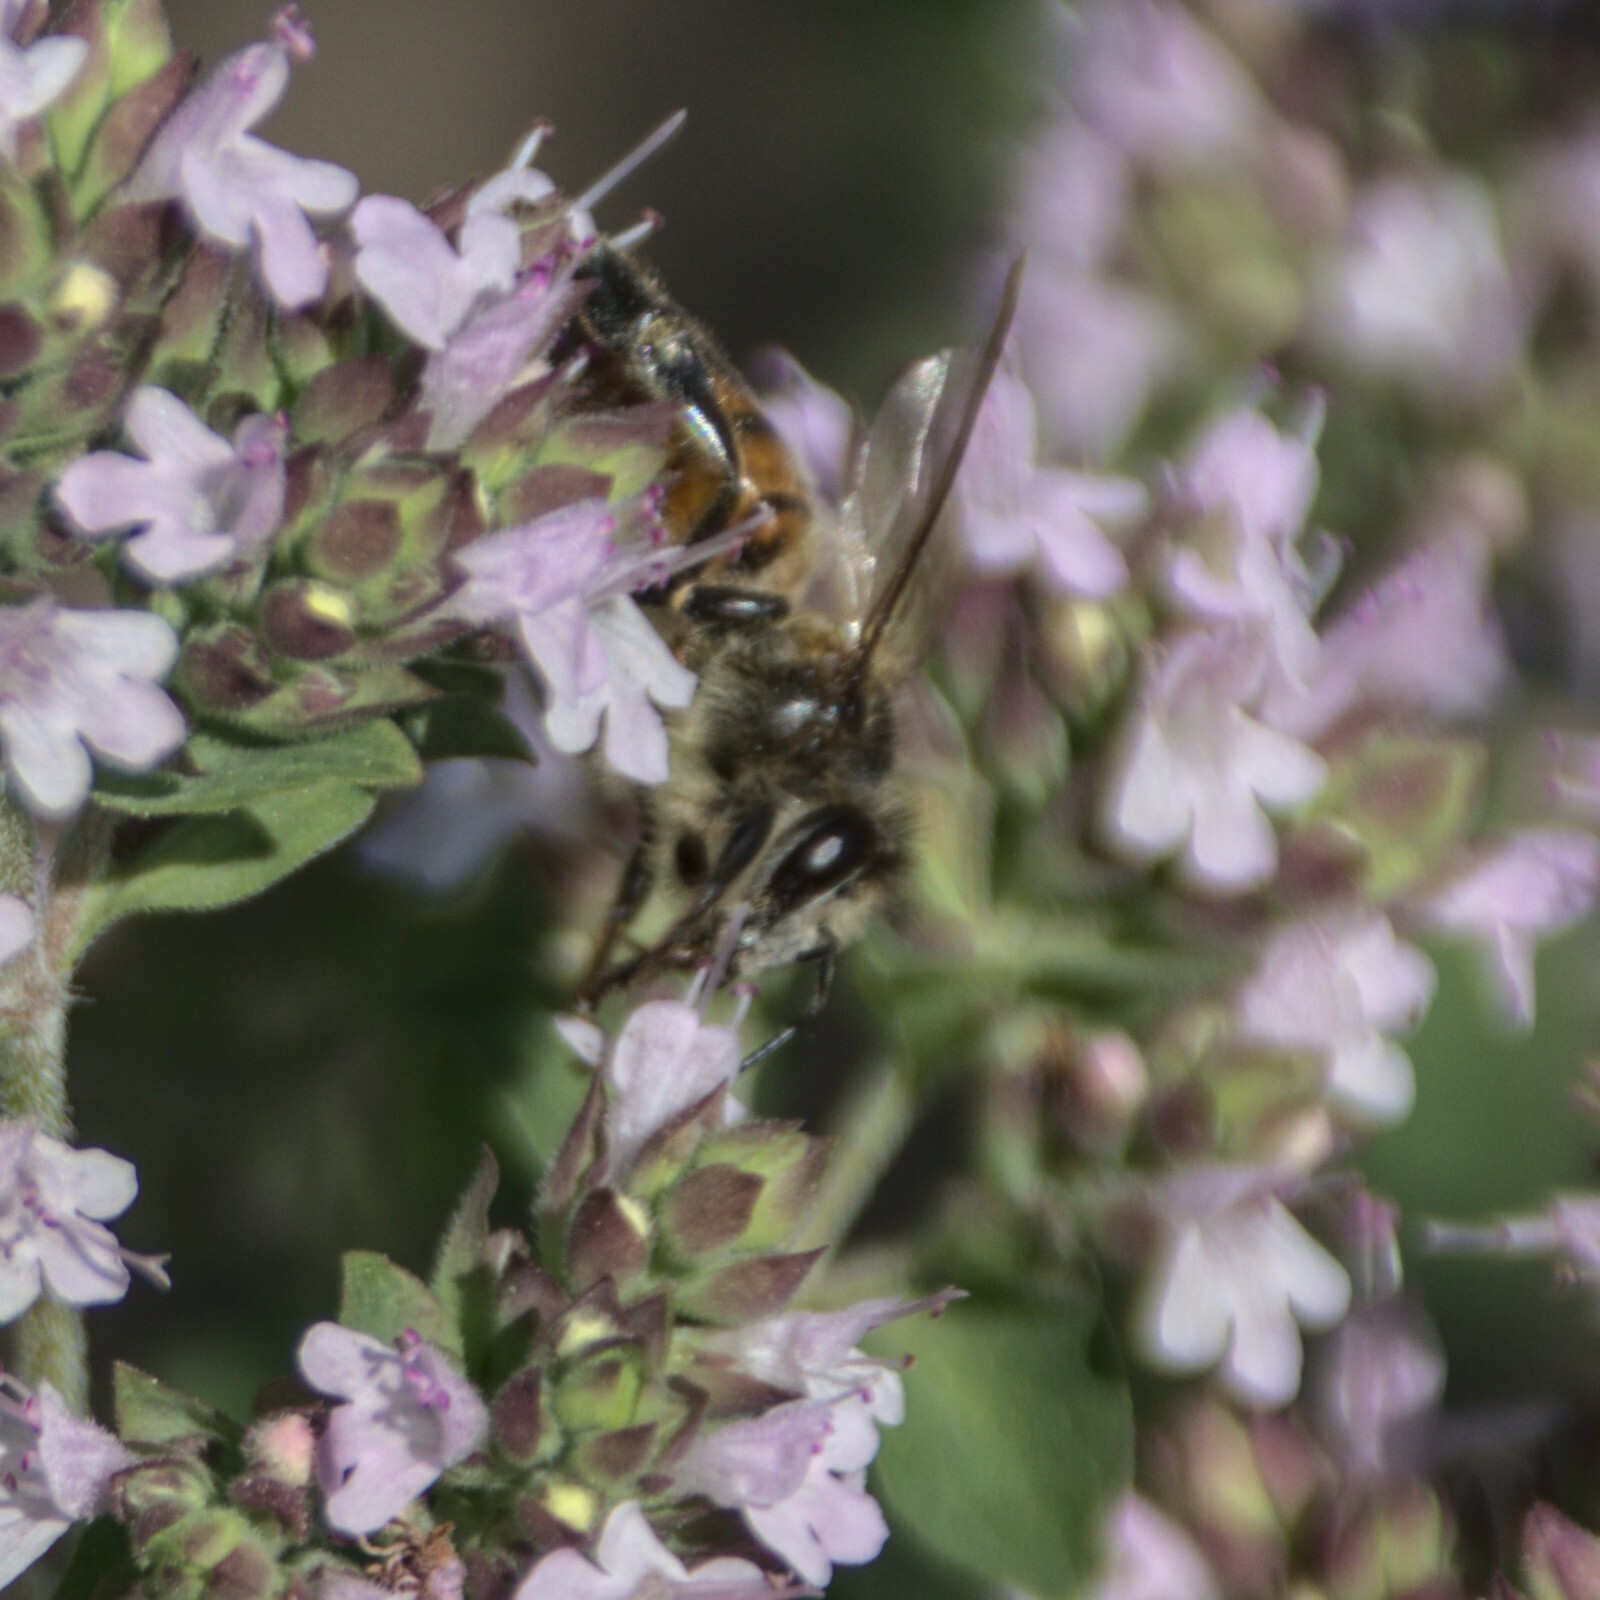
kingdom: Animalia
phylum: Arthropoda
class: Insecta
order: Hymenoptera
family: Apidae
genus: Apis
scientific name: Apis mellifera
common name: Honey bee
